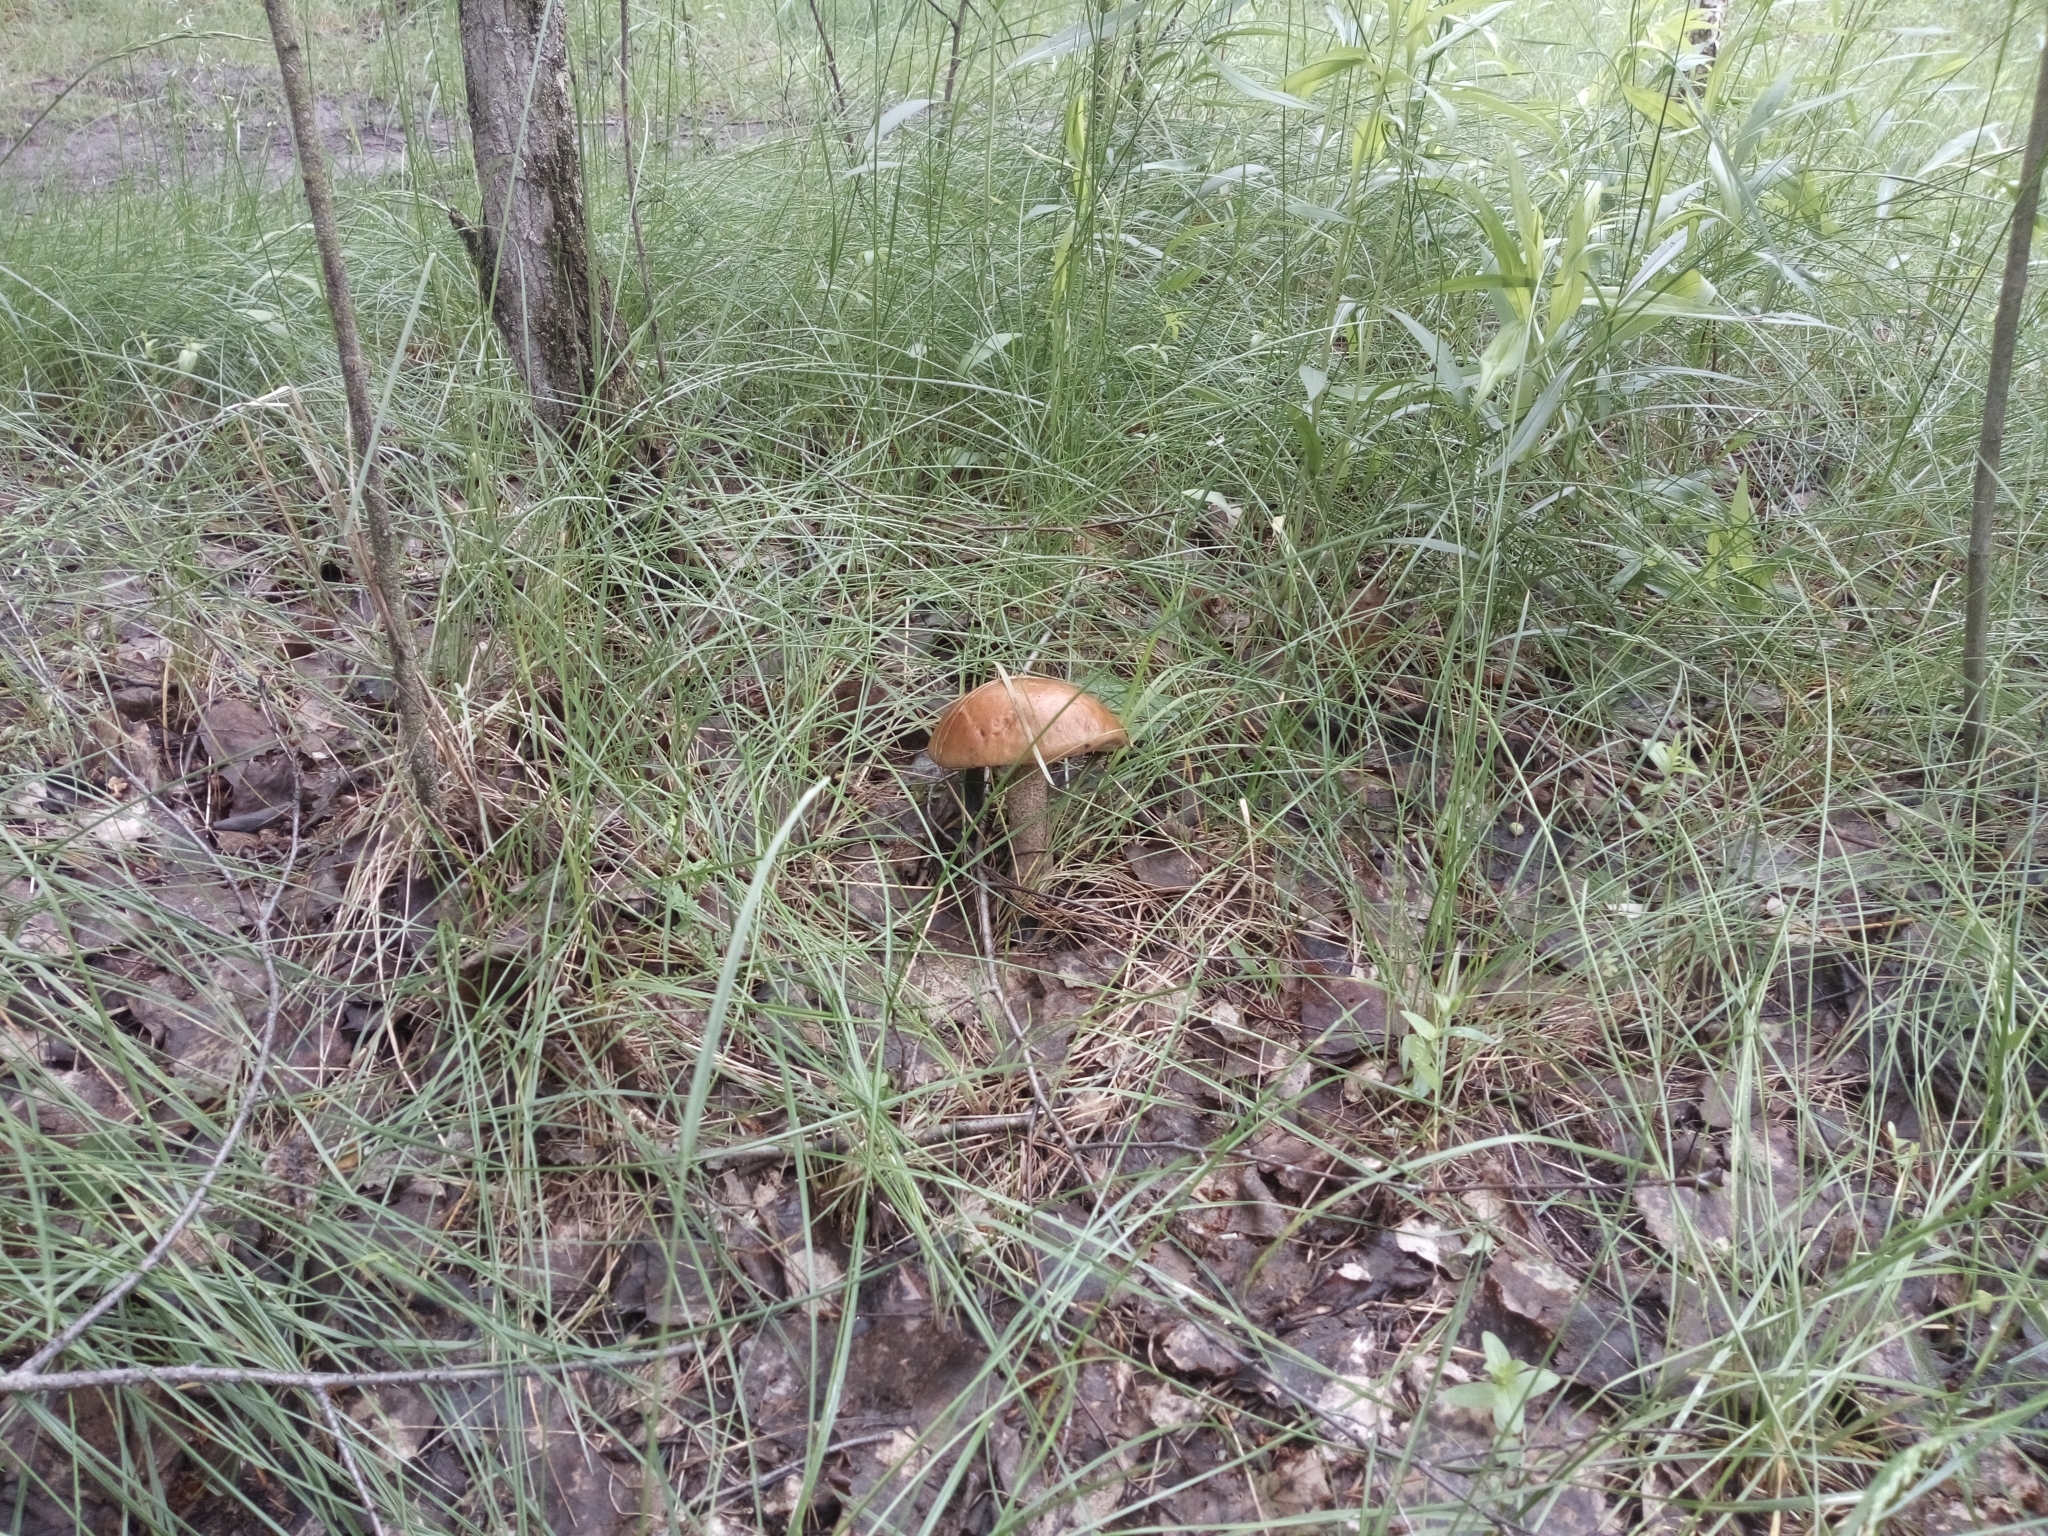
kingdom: Fungi
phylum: Basidiomycota
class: Agaricomycetes
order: Boletales
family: Boletaceae
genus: Leccinum
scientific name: Leccinum scabrum
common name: Blushing bolete
